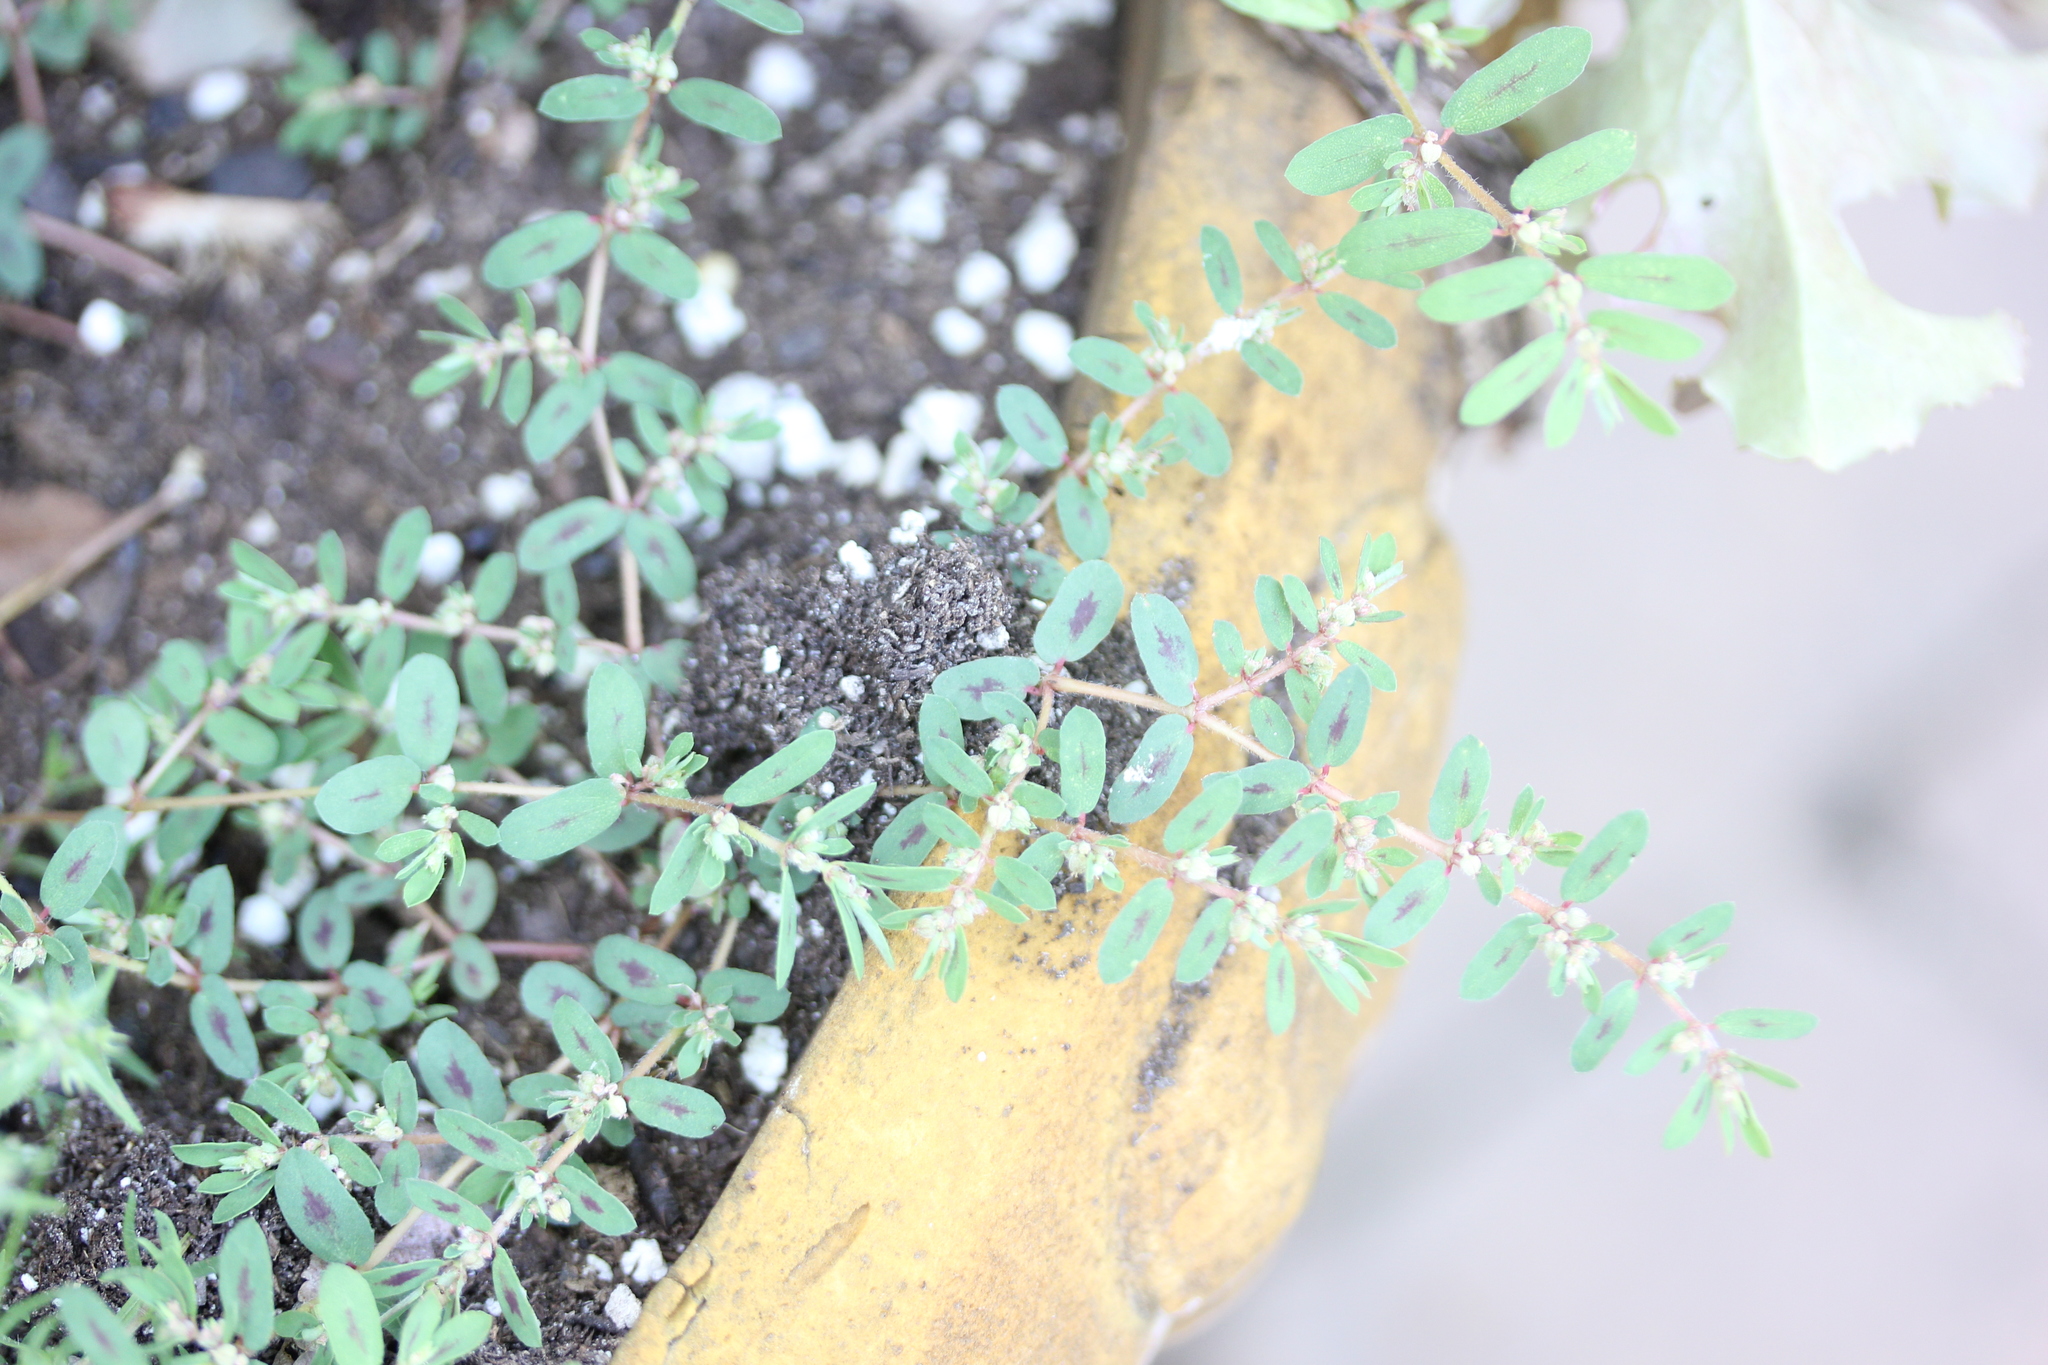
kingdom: Plantae
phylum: Tracheophyta
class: Magnoliopsida
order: Malpighiales
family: Euphorbiaceae
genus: Euphorbia
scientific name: Euphorbia maculata
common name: Spotted spurge
